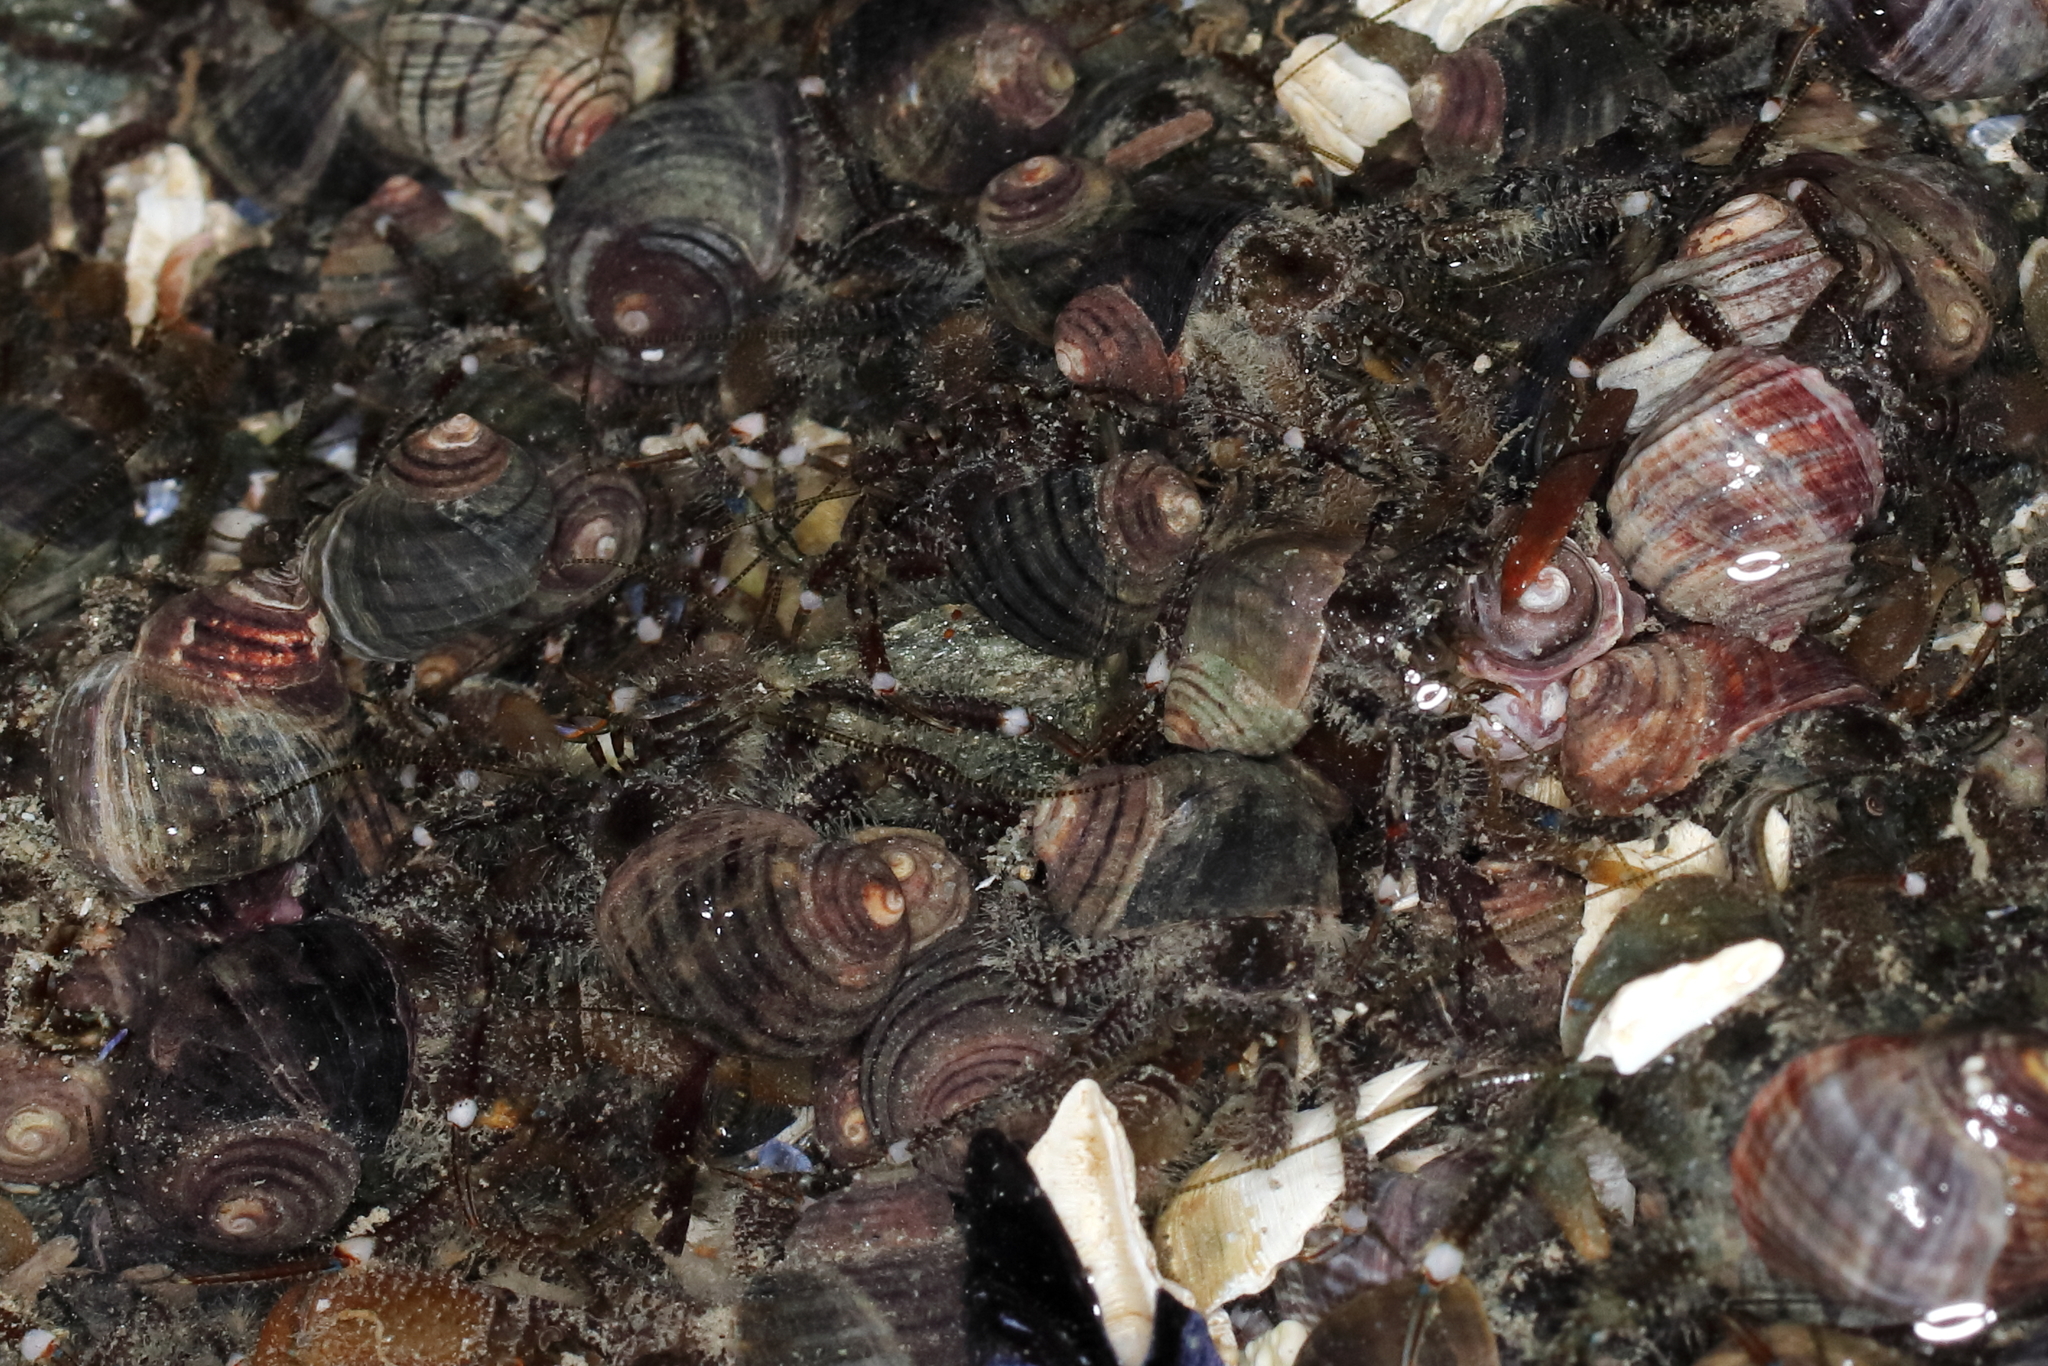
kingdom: Animalia
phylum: Arthropoda
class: Malacostraca
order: Decapoda
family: Paguridae
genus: Pagurus
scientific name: Pagurus hirsutiusculus
